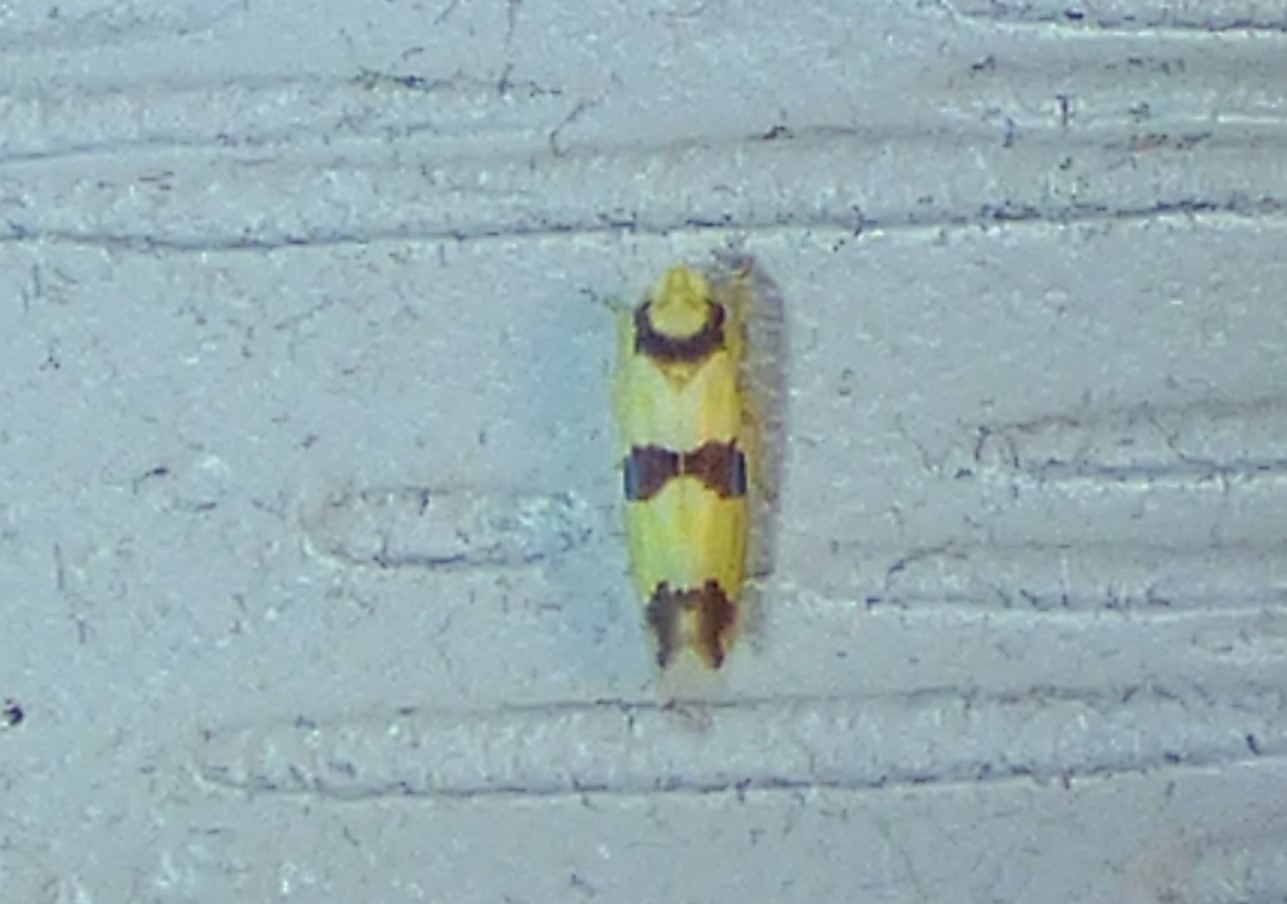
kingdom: Animalia
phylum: Arthropoda
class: Insecta
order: Hemiptera
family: Cicadellidae
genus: Erythroneura
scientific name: Erythroneura calycula
